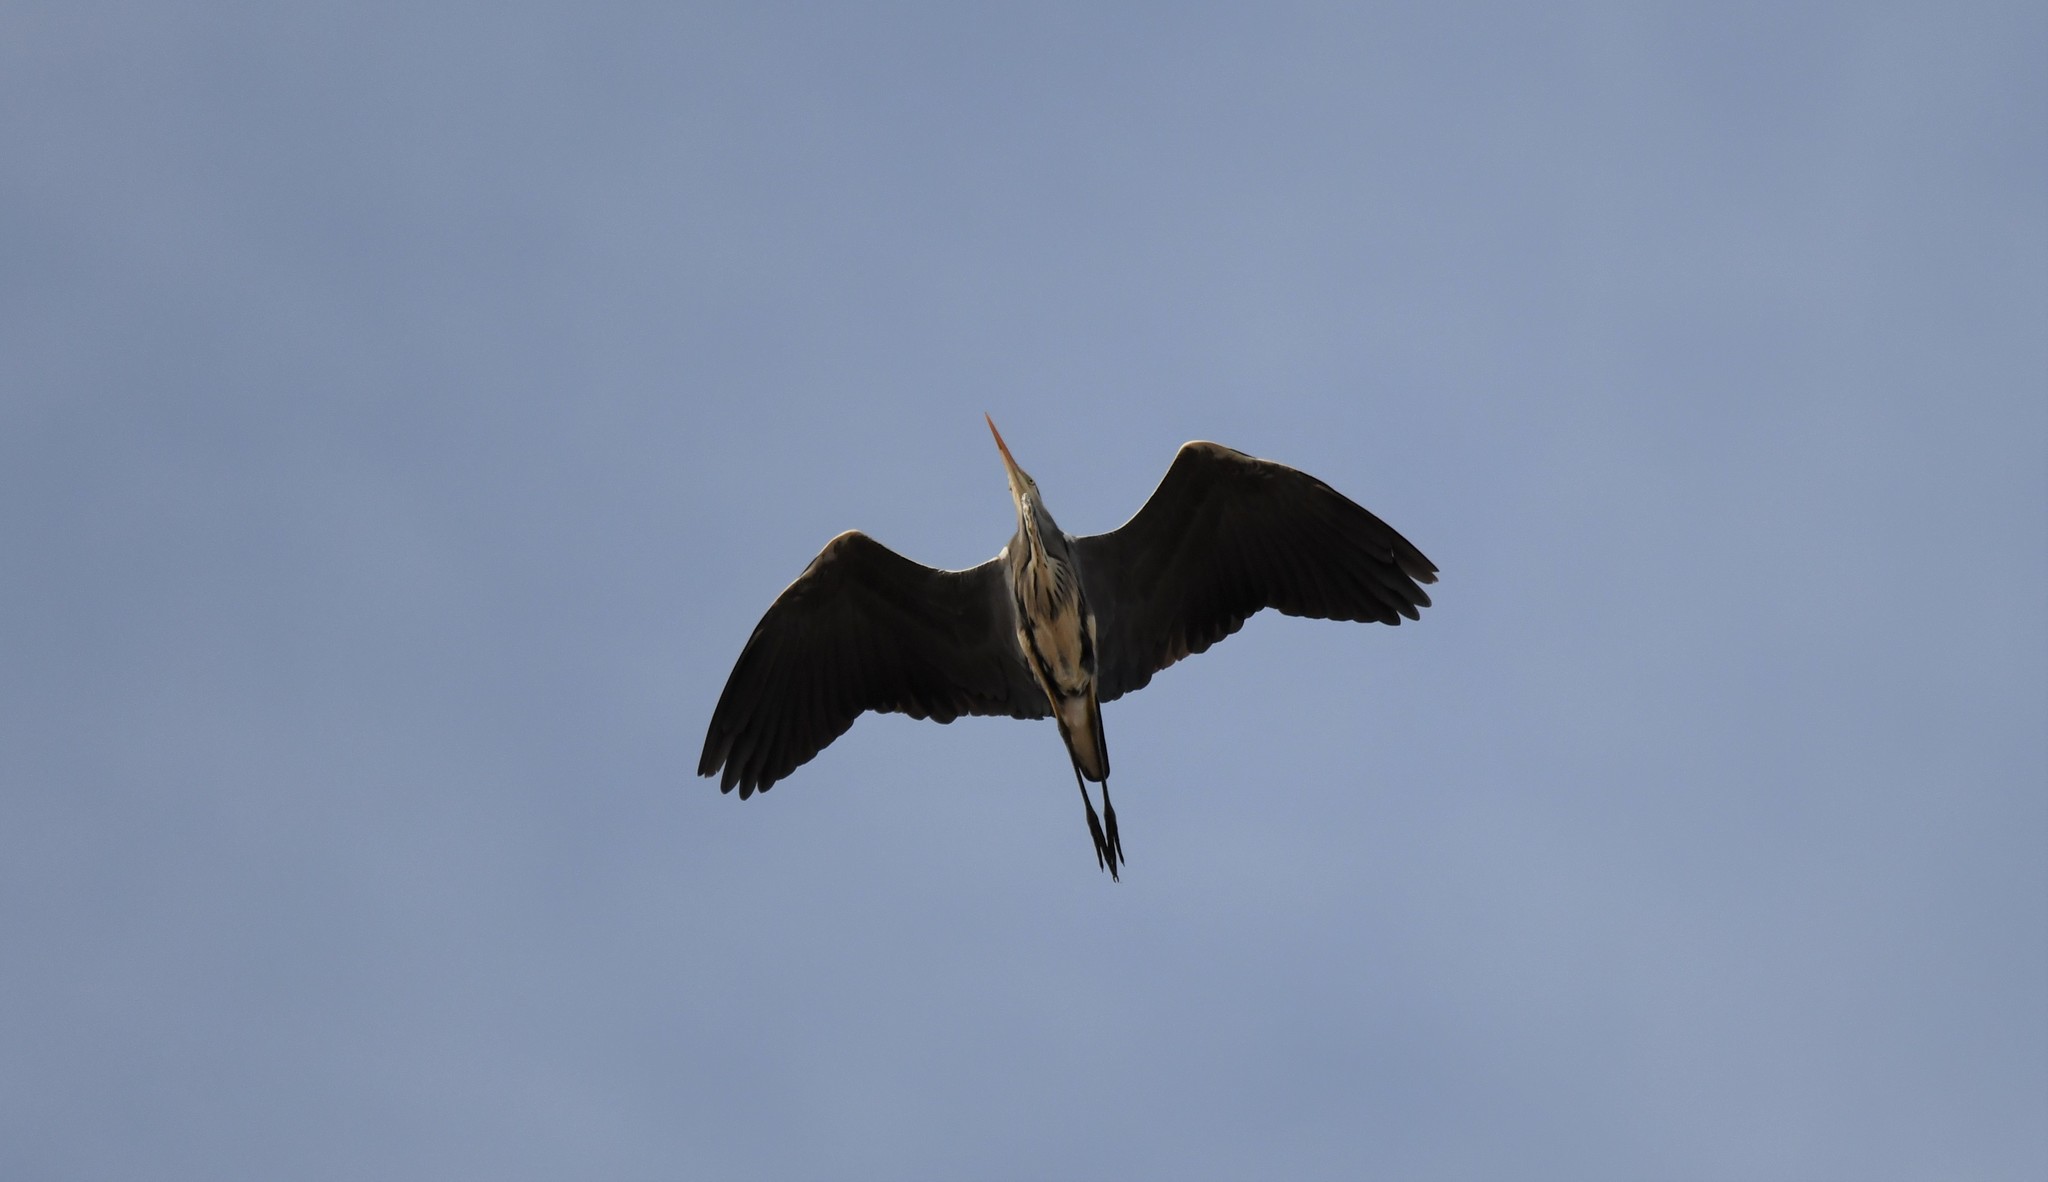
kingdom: Animalia
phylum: Chordata
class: Aves
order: Pelecaniformes
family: Ardeidae
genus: Ardea
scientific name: Ardea cinerea
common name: Grey heron
